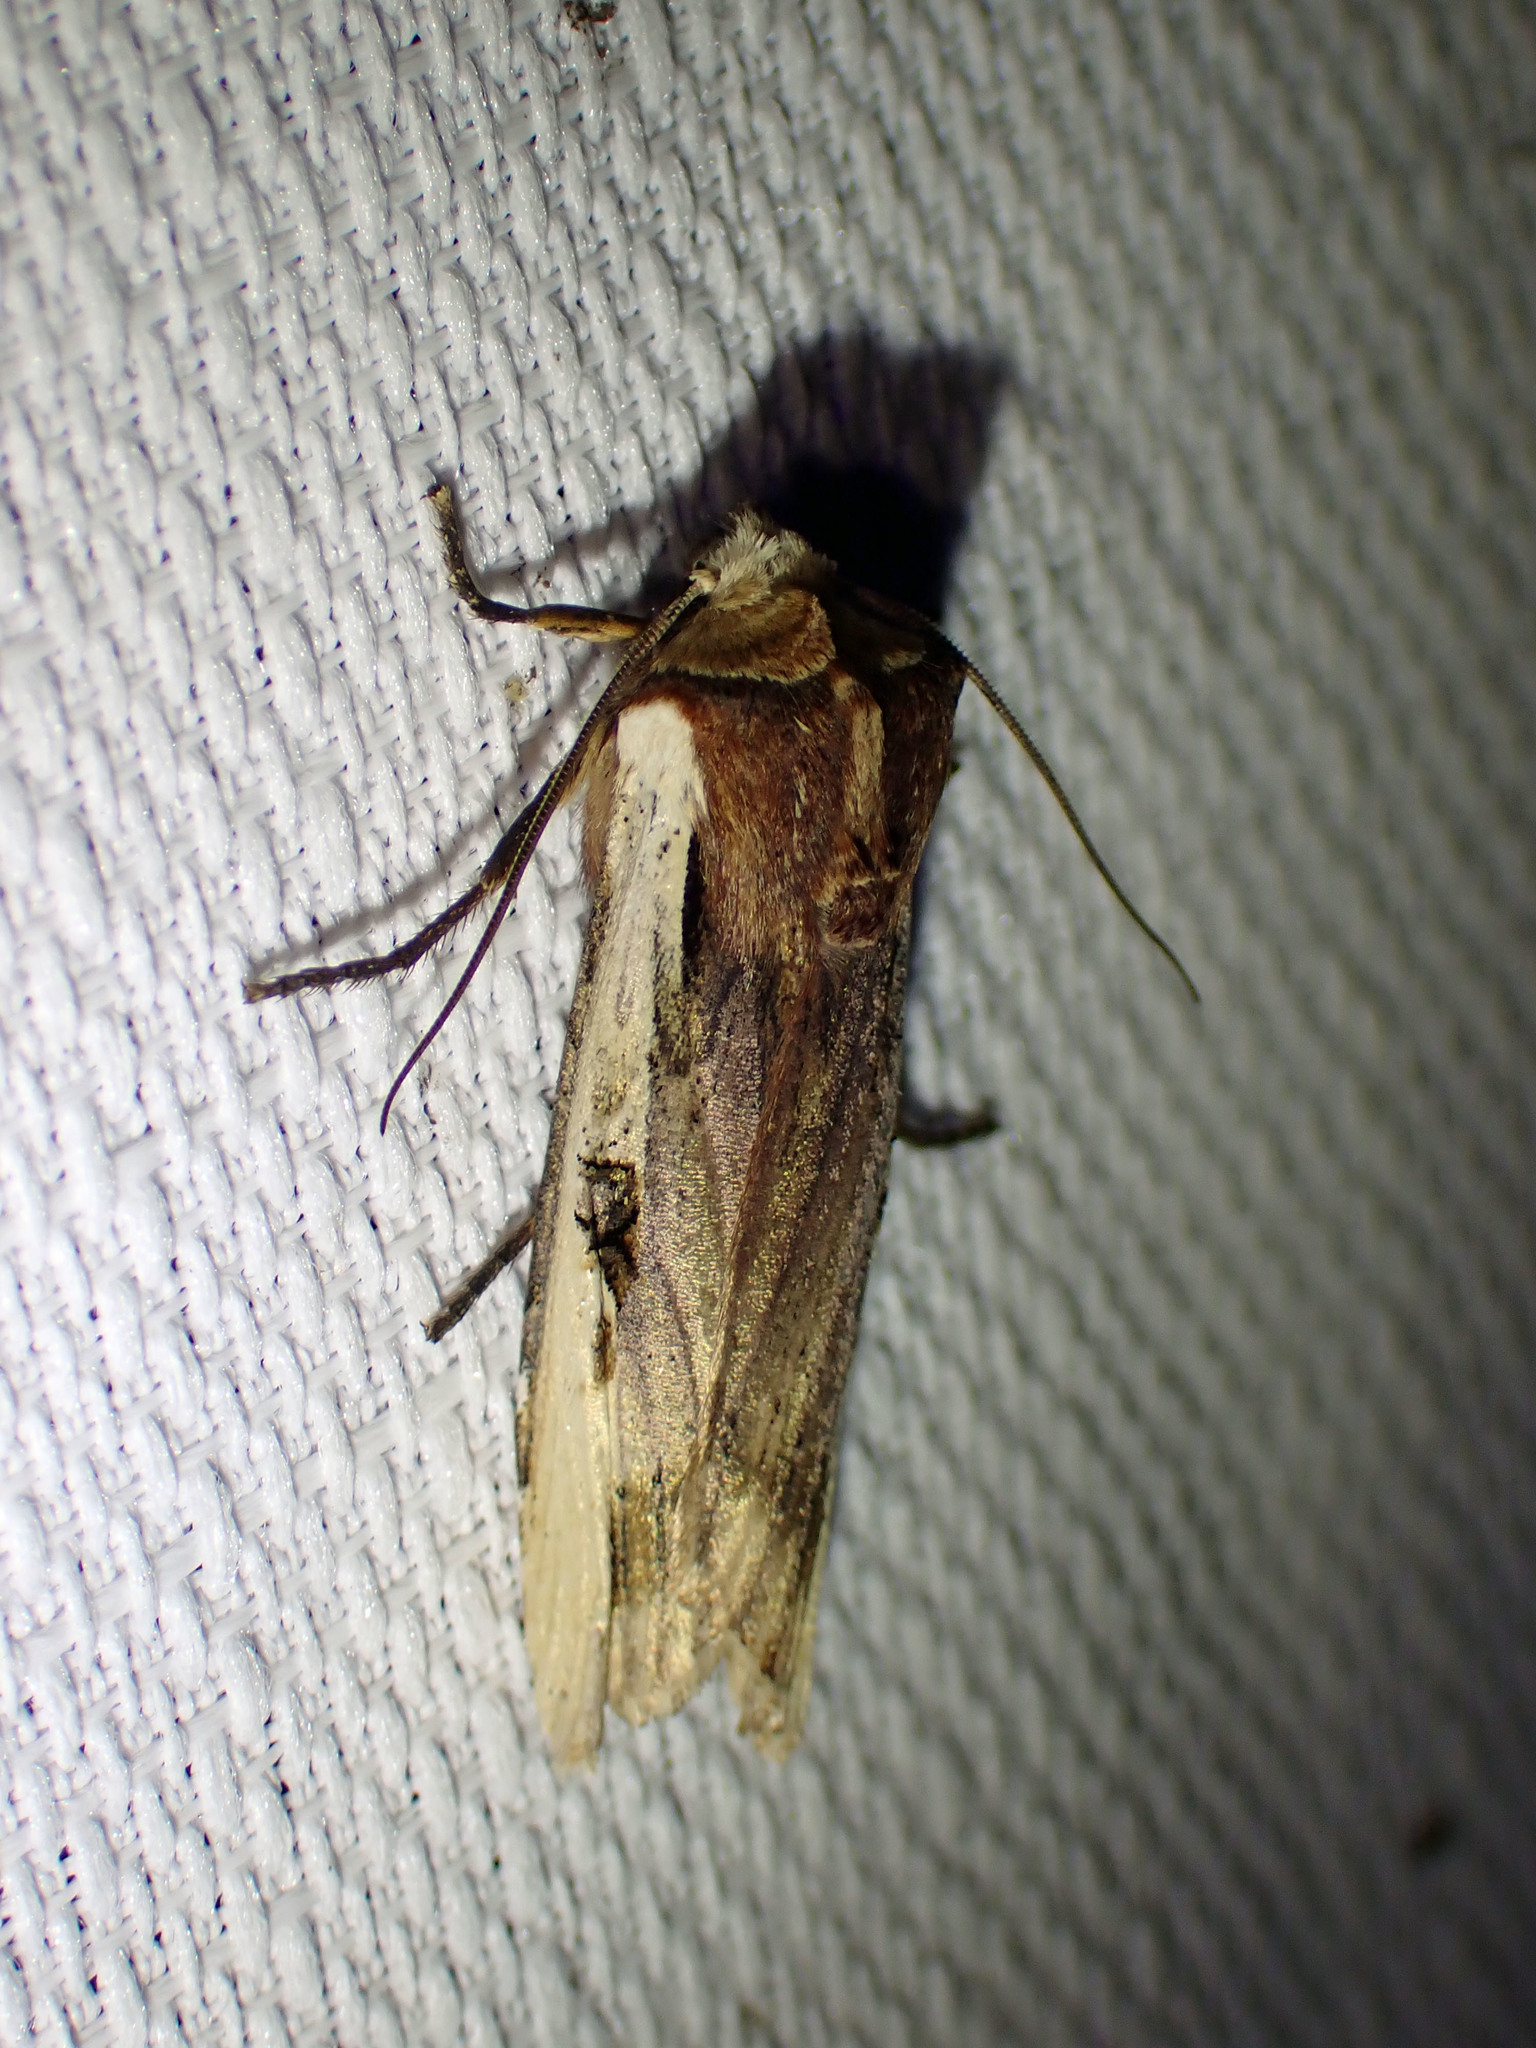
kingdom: Animalia
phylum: Arthropoda
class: Insecta
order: Lepidoptera
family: Noctuidae
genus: Xylena
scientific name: Xylena curvimacula
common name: Dot-and-dash swordgrass moth
